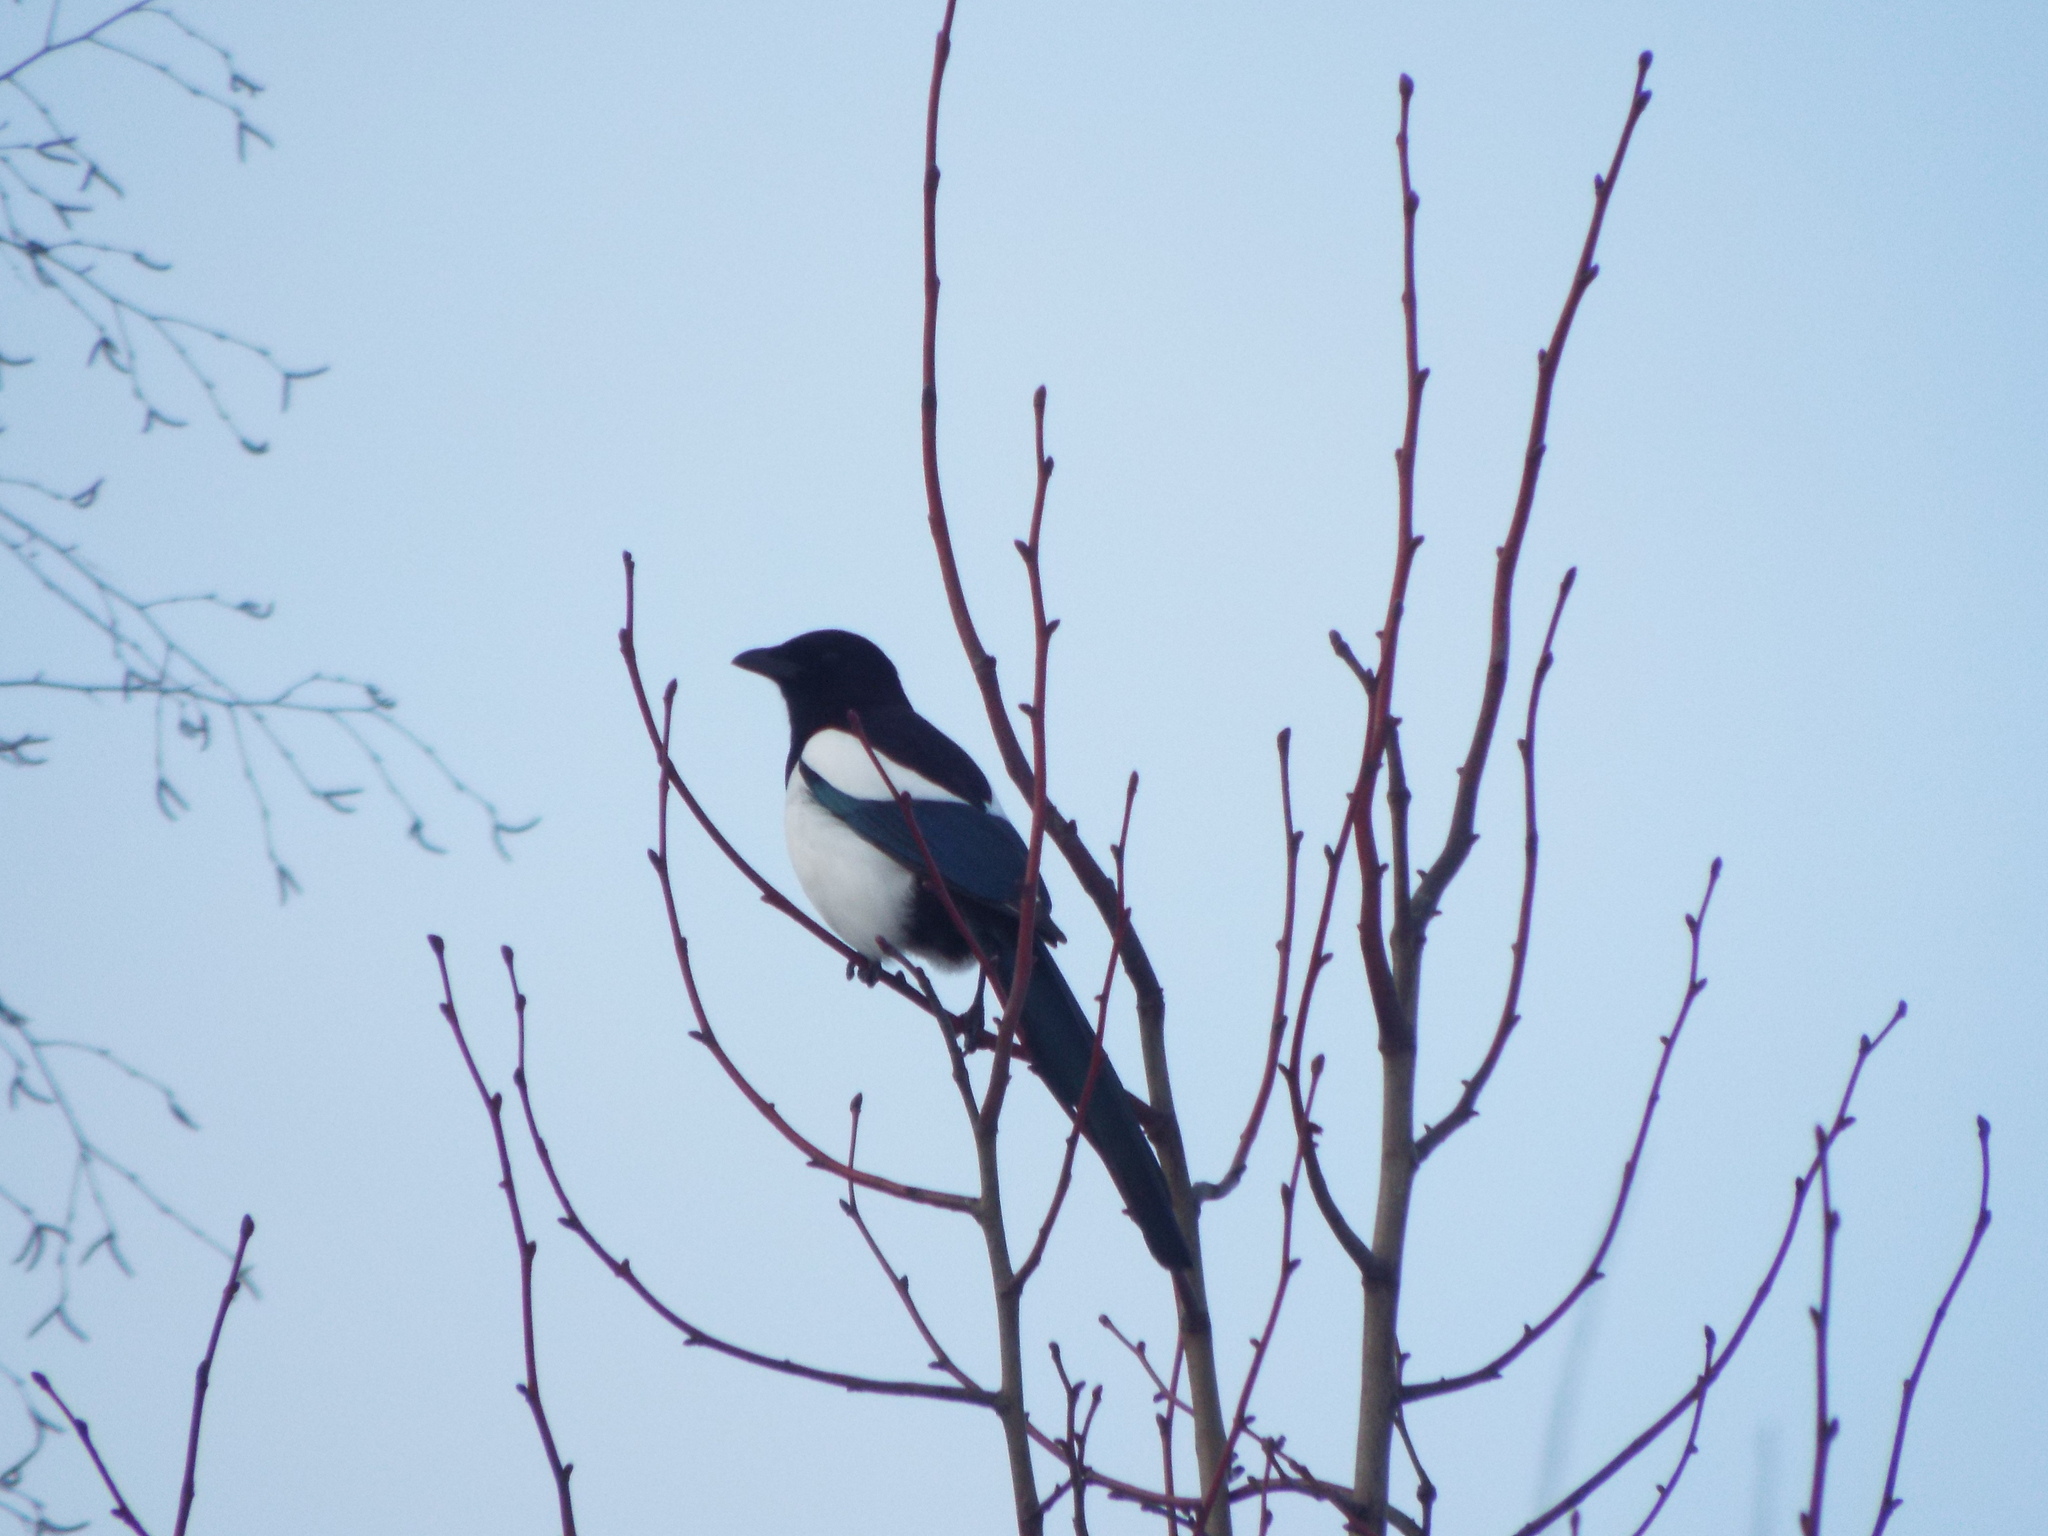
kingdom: Animalia
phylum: Chordata
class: Aves
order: Passeriformes
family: Corvidae
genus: Pica
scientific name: Pica pica
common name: Eurasian magpie
